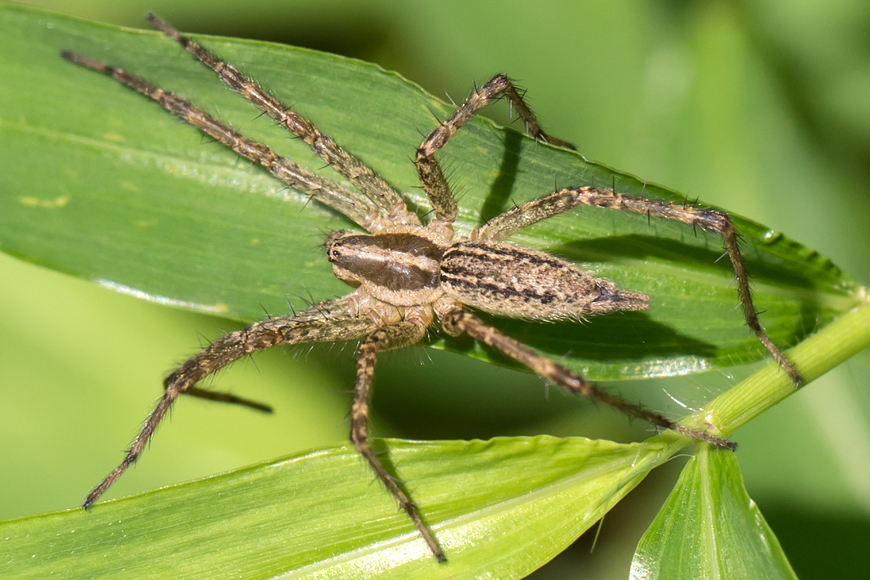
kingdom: Animalia
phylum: Arthropoda
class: Arachnida
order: Araneae
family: Agelenidae
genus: Agelenopsis
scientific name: Agelenopsis
